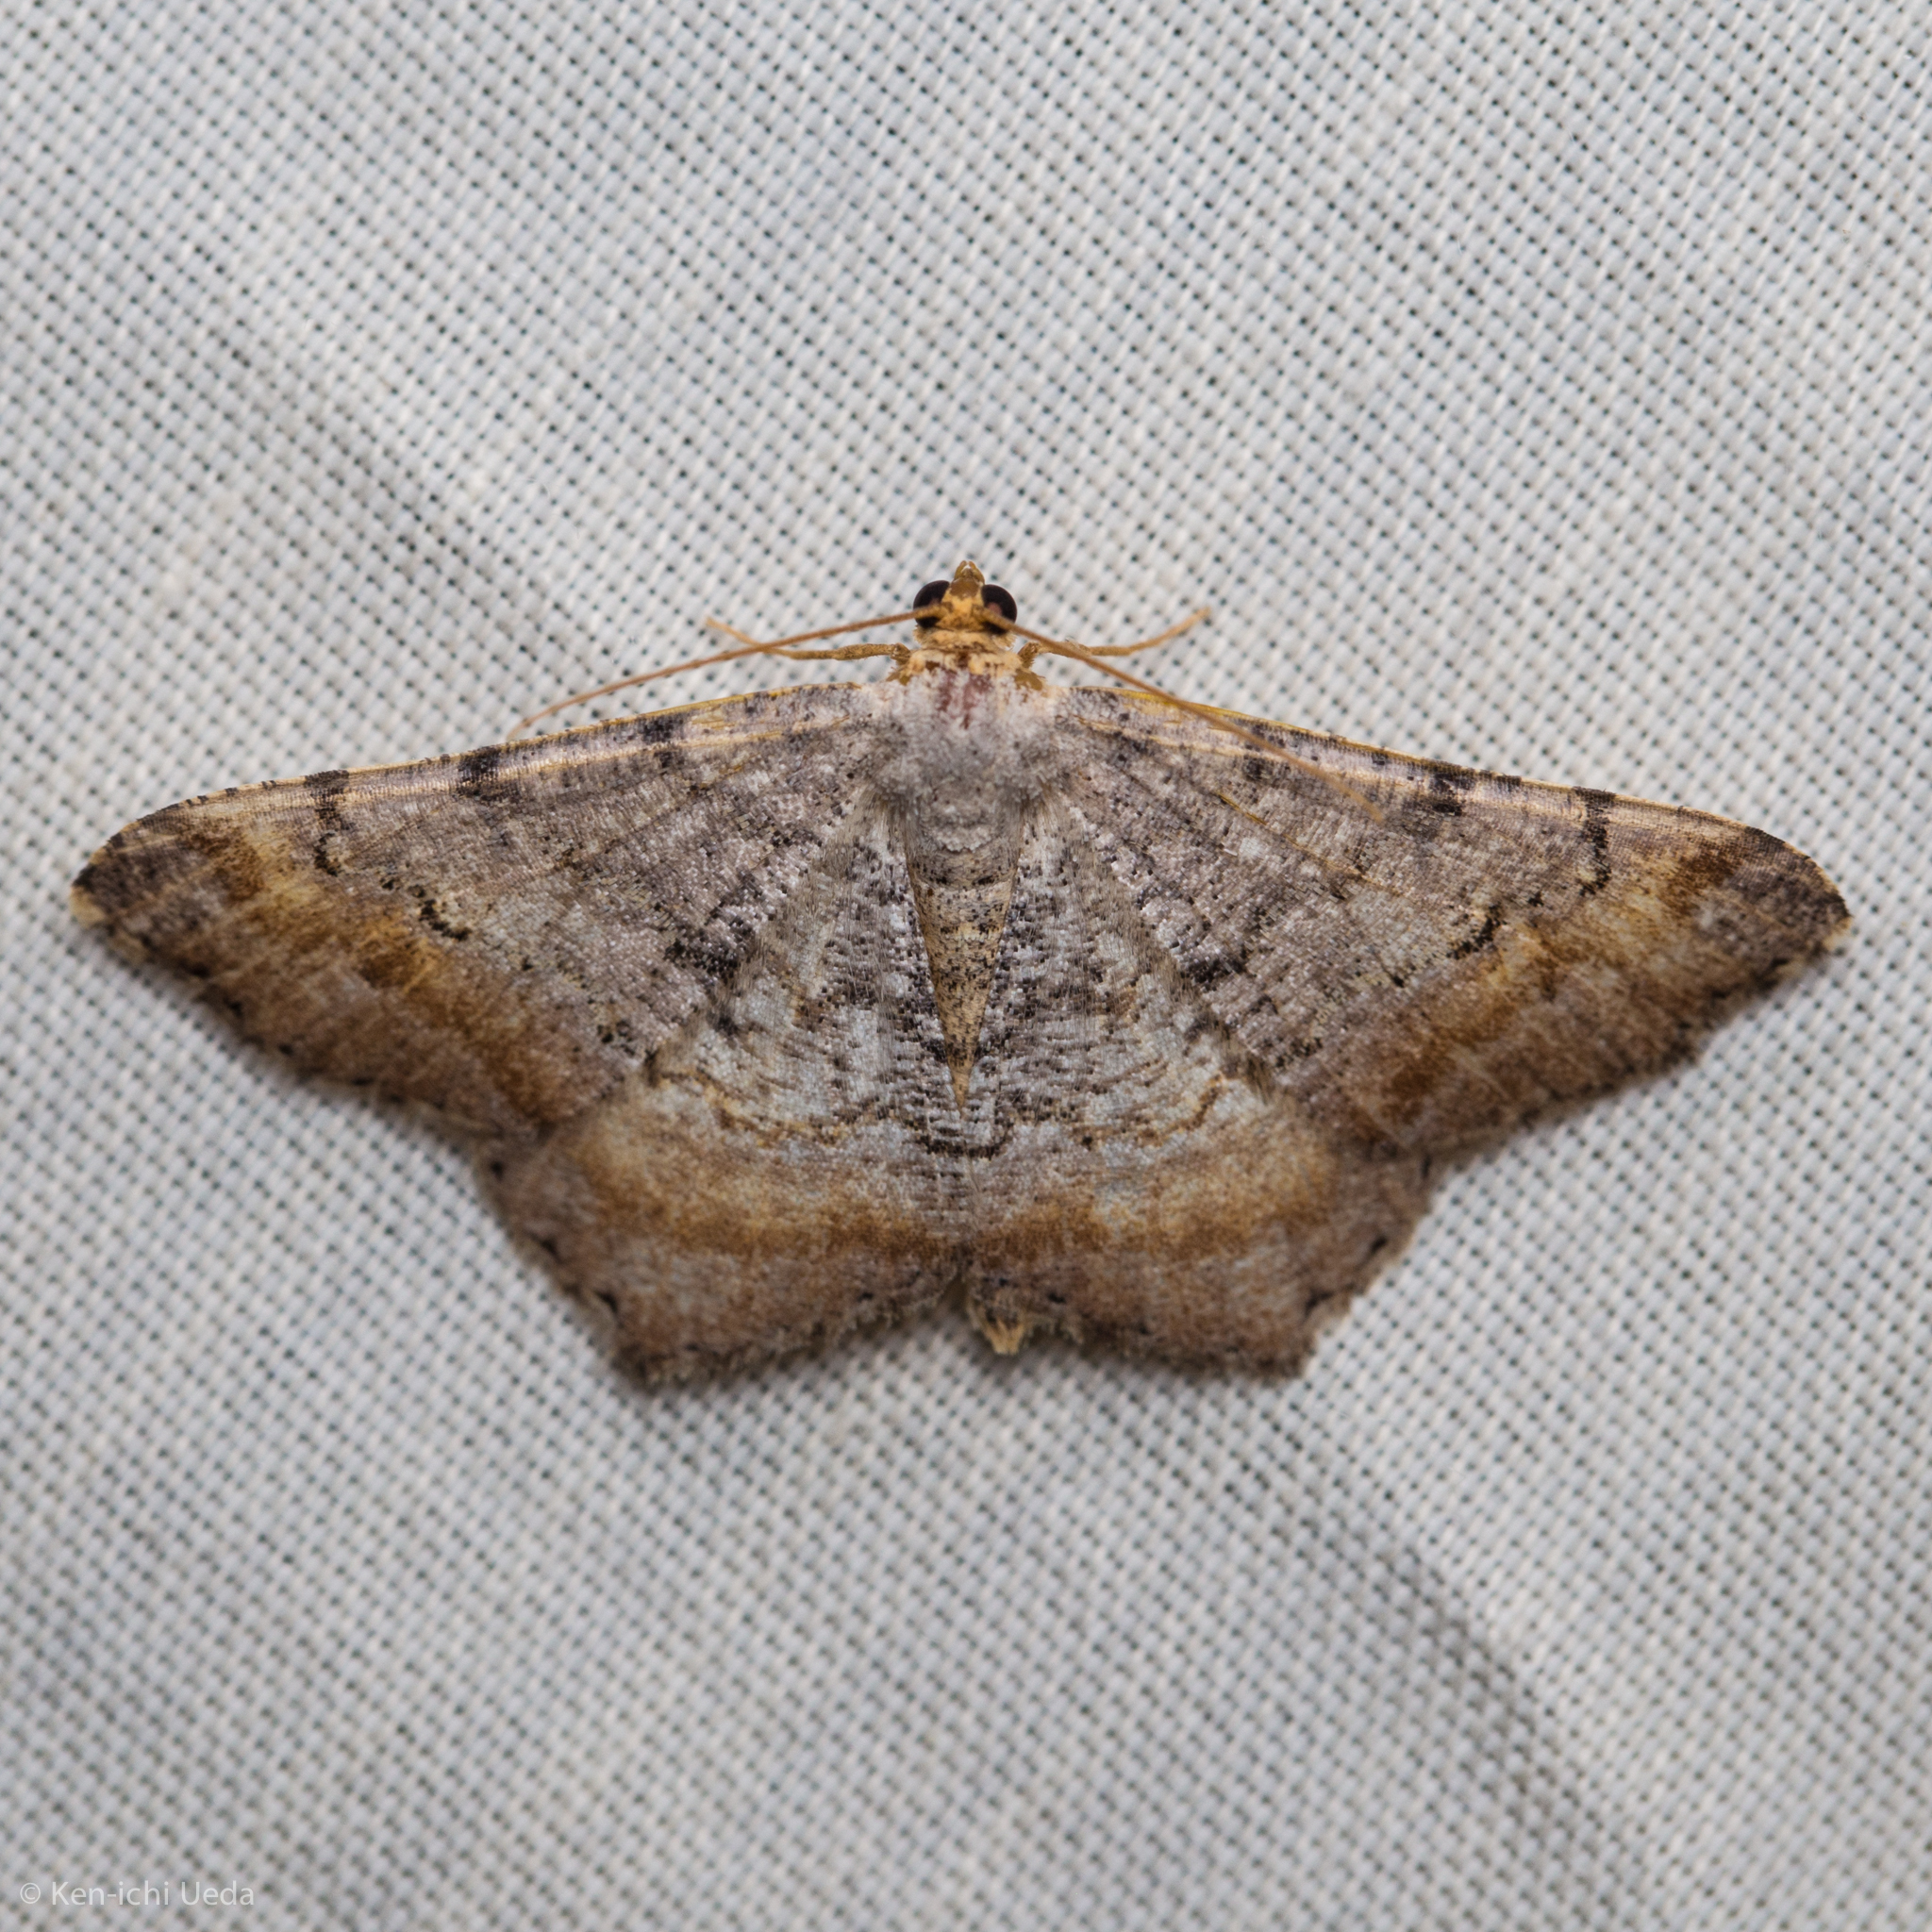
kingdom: Animalia
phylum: Arthropoda
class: Insecta
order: Lepidoptera
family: Geometridae
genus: Macaria
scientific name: Macaria adonis
